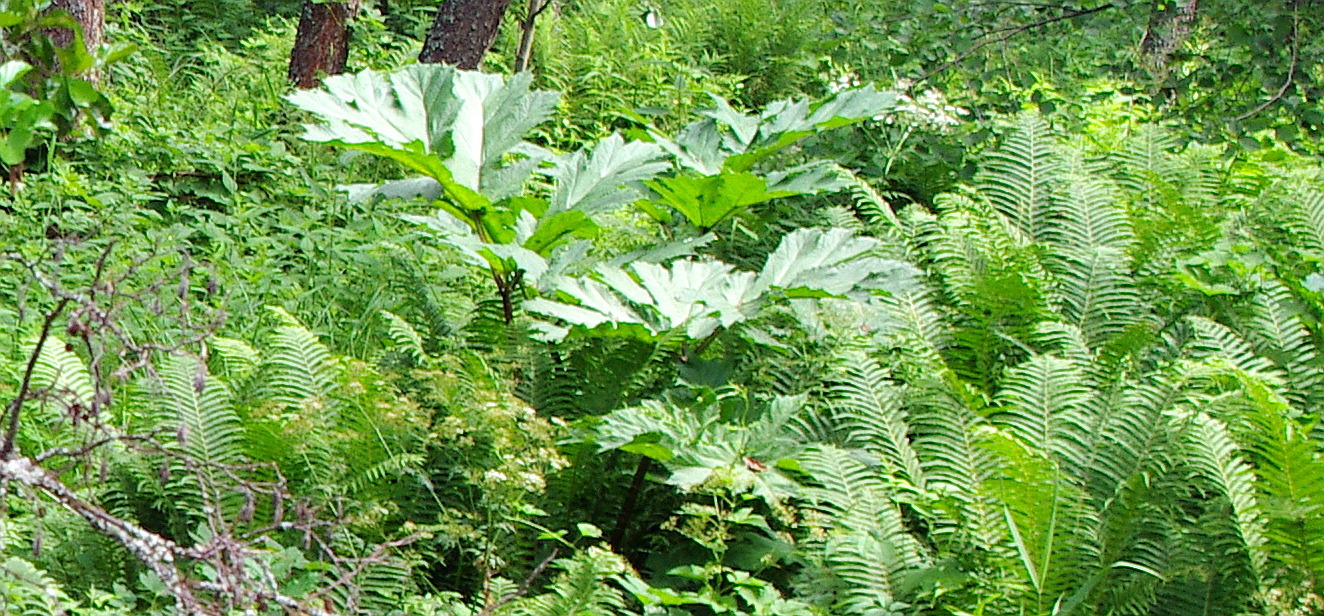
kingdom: Plantae
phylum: Tracheophyta
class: Magnoliopsida
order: Apiales
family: Apiaceae
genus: Heracleum
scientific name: Heracleum sosnowskyi
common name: Sosnowsky's hogweed
